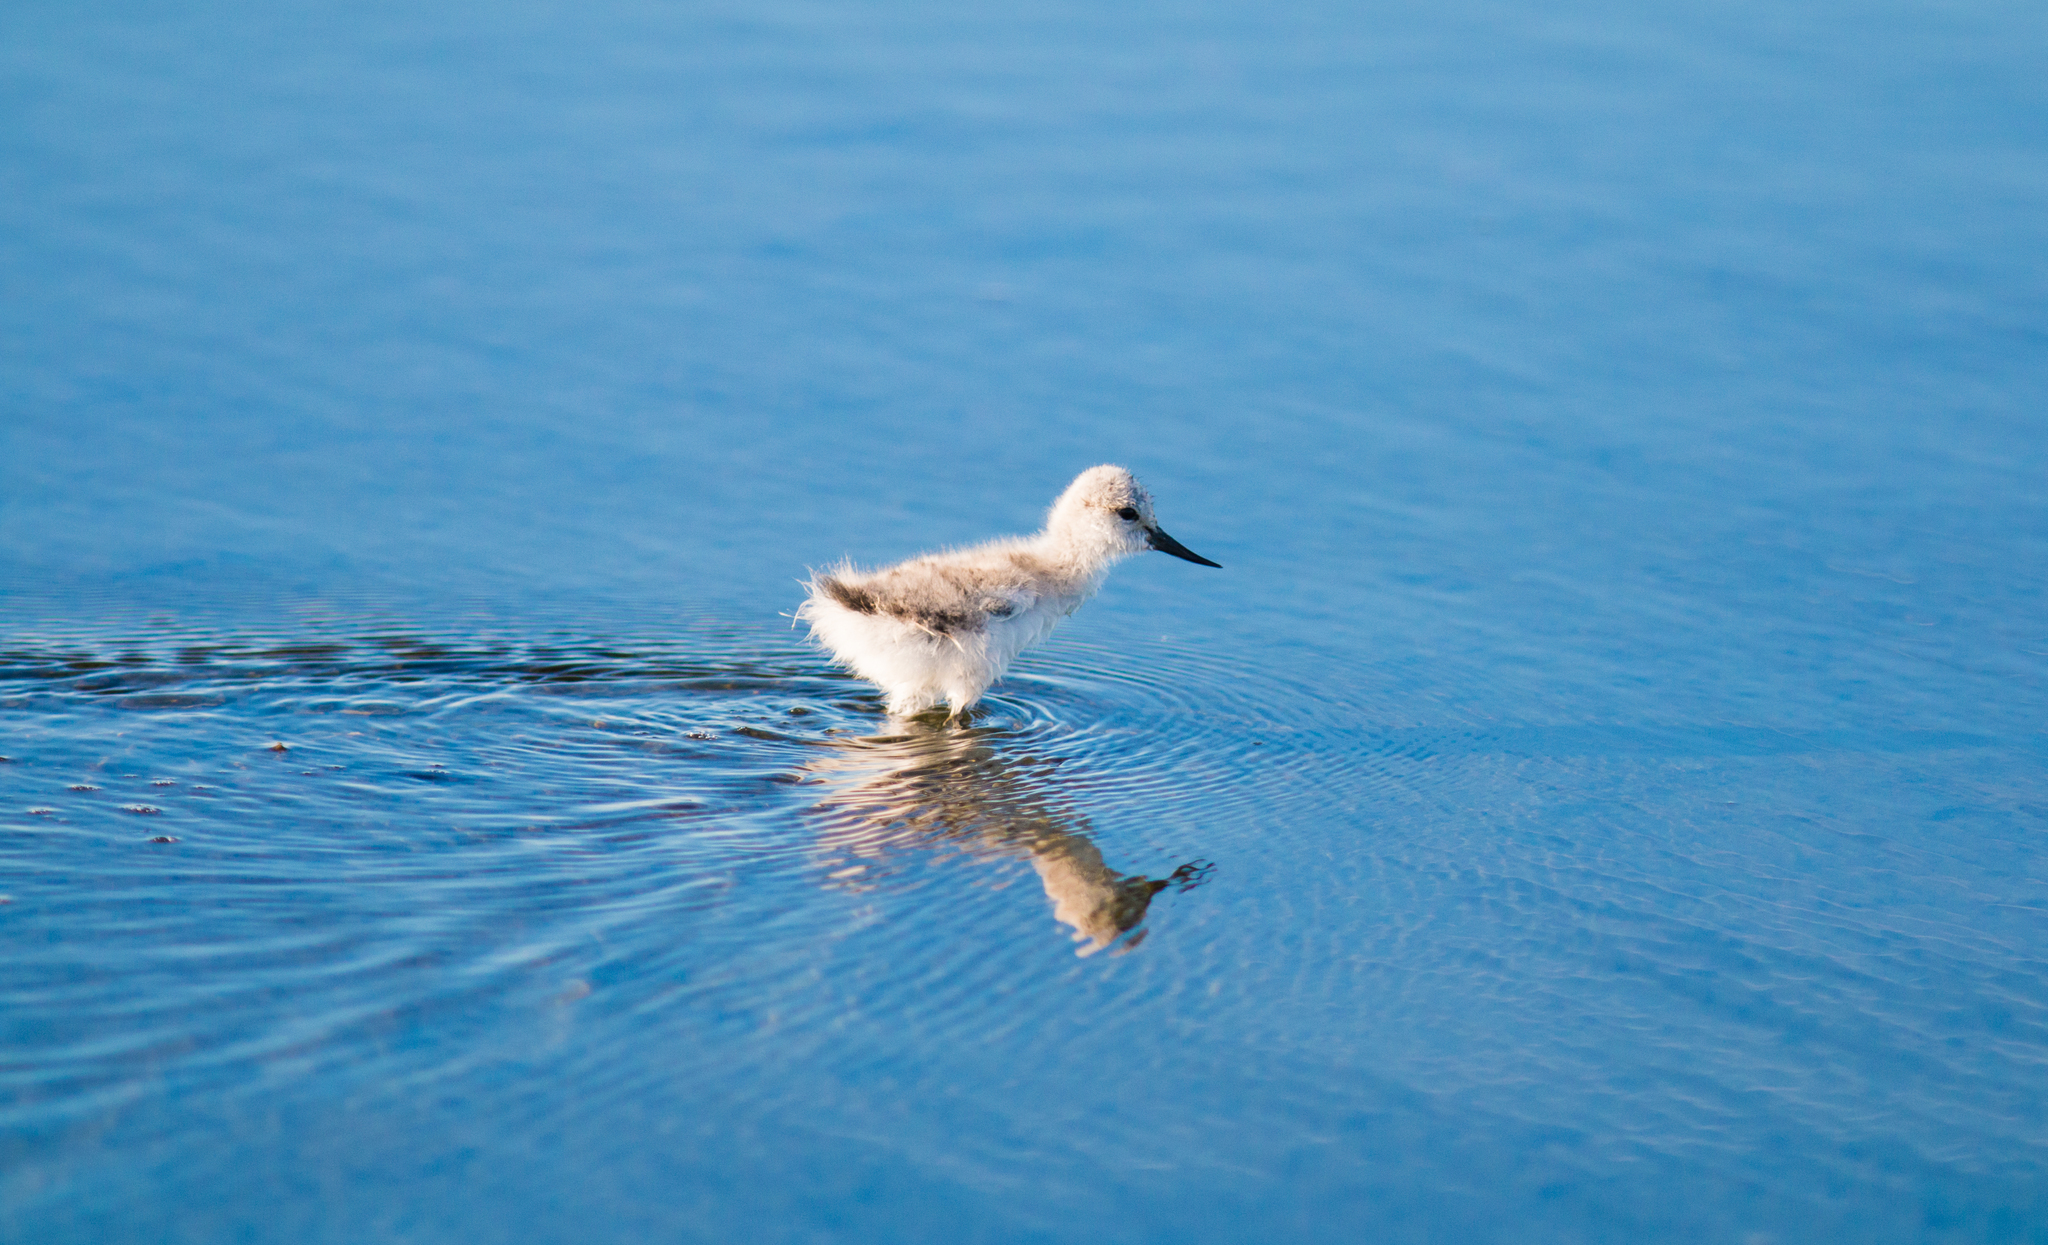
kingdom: Animalia
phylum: Chordata
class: Aves
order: Charadriiformes
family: Recurvirostridae
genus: Recurvirostra
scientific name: Recurvirostra avosetta
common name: Pied avocet
